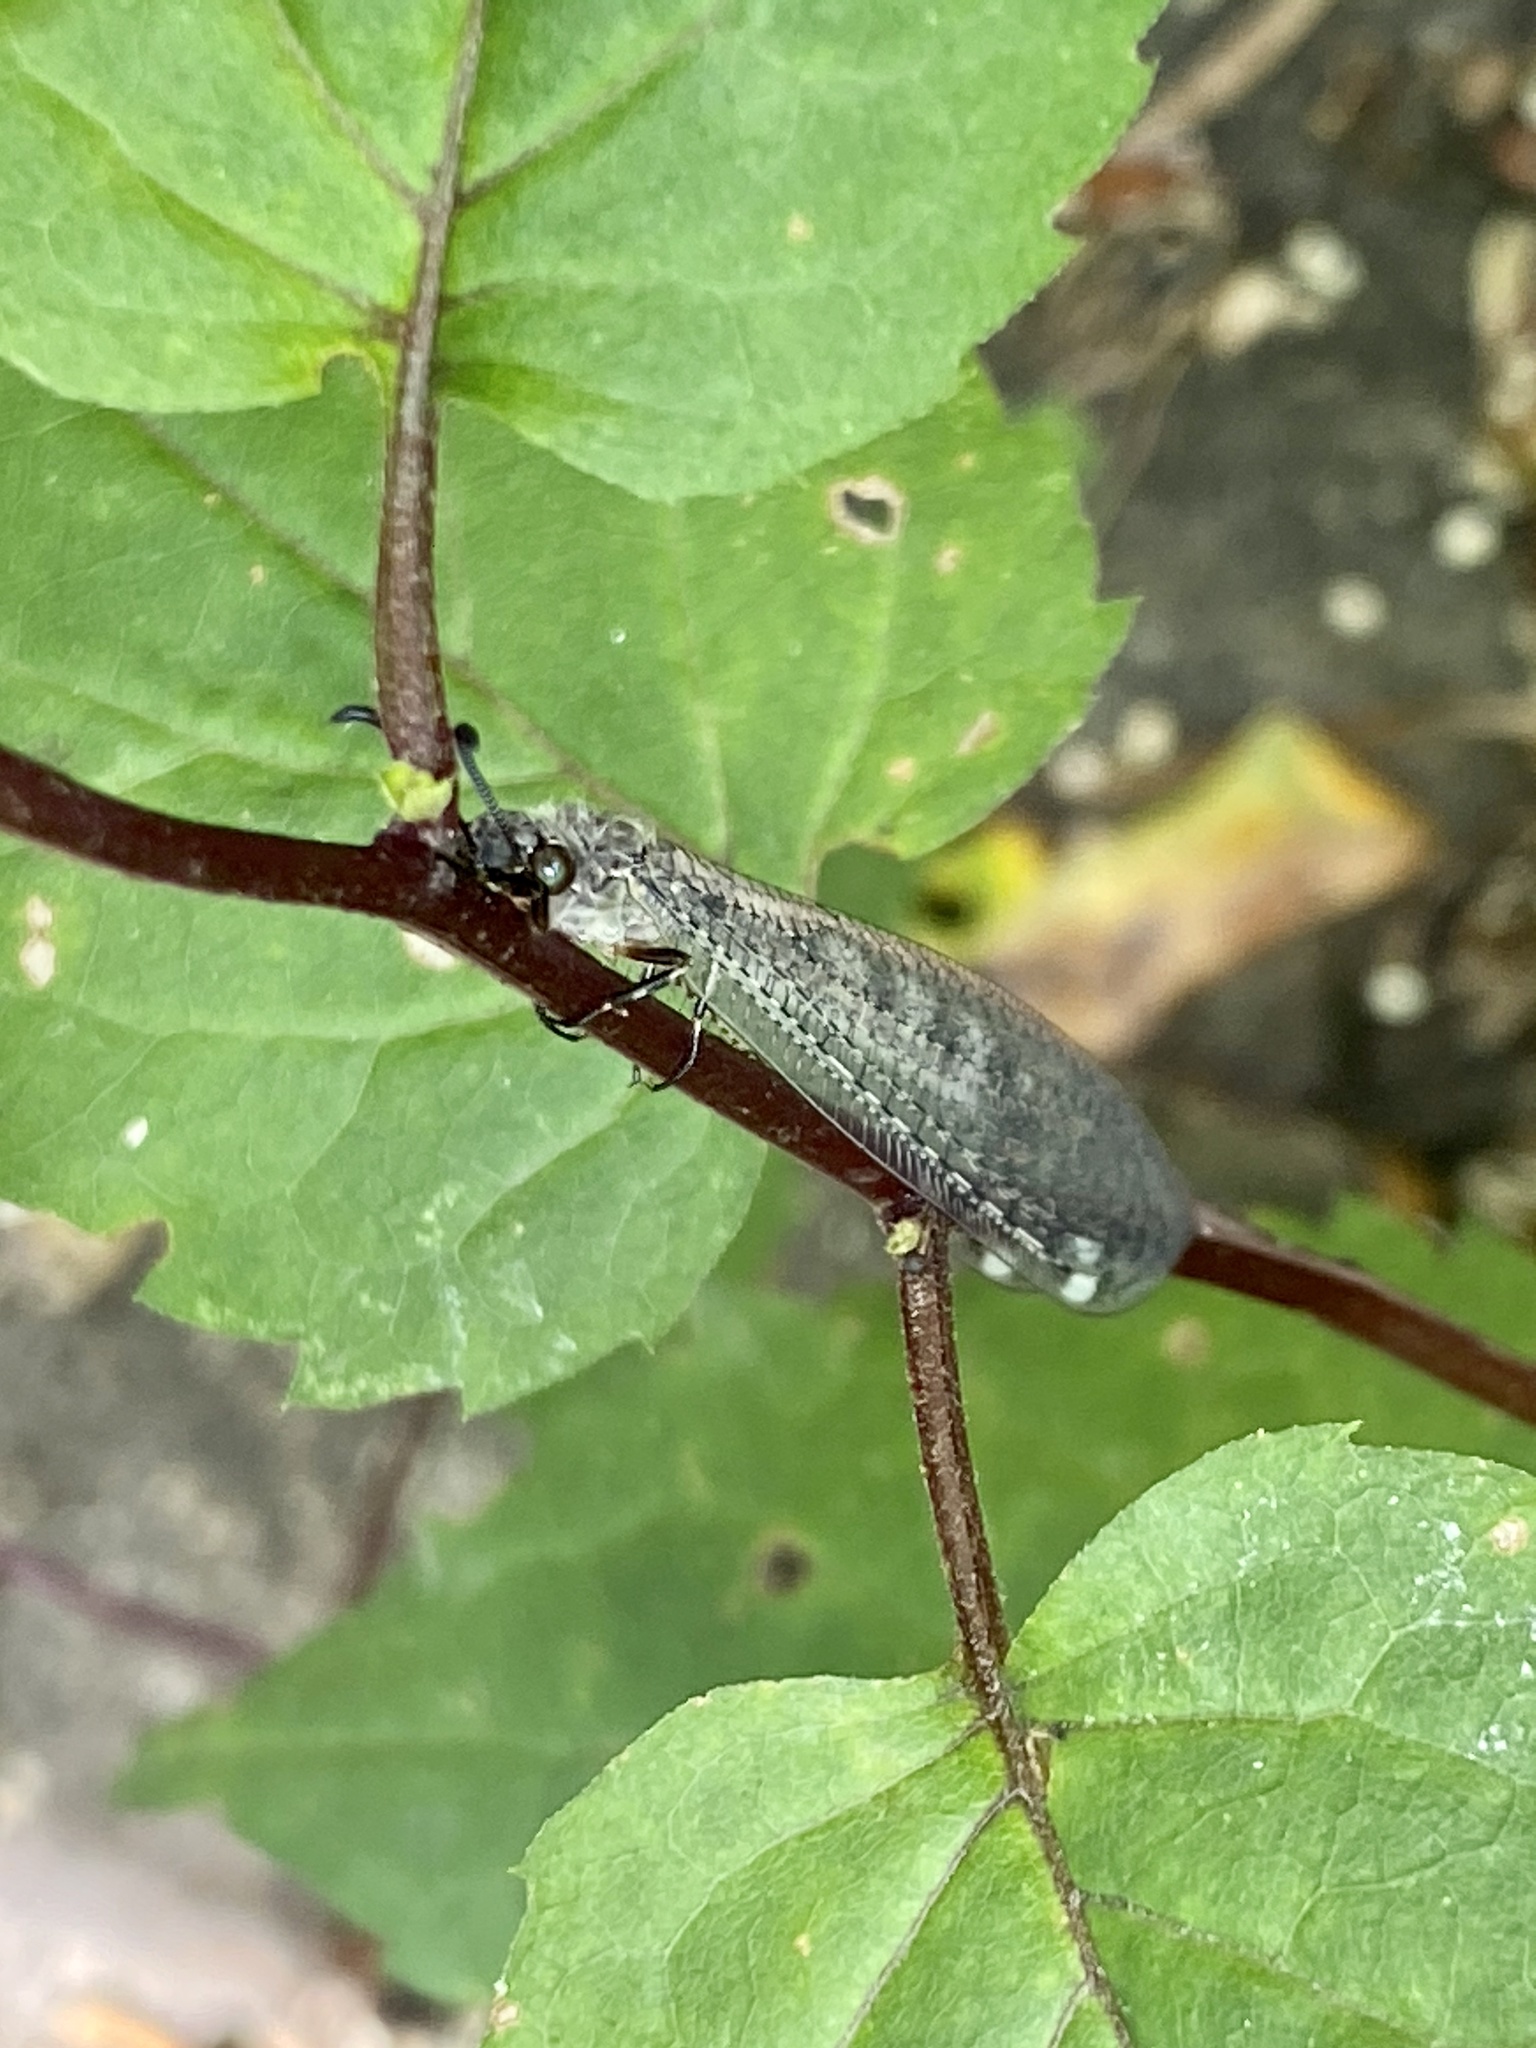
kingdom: Animalia
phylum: Arthropoda
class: Insecta
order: Neuroptera
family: Myrmeleontidae
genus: Myrmeleon
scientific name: Myrmeleon immaculatus
